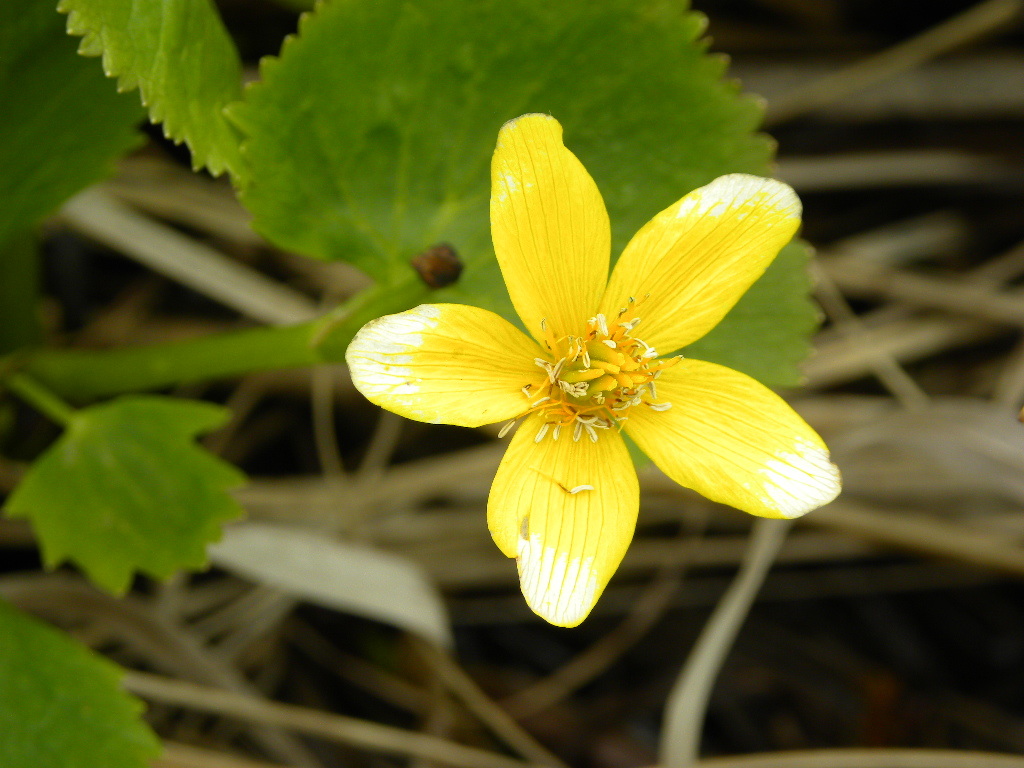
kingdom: Plantae
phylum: Tracheophyta
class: Magnoliopsida
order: Ranunculales
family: Ranunculaceae
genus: Caltha
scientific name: Caltha palustris
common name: Marsh marigold
